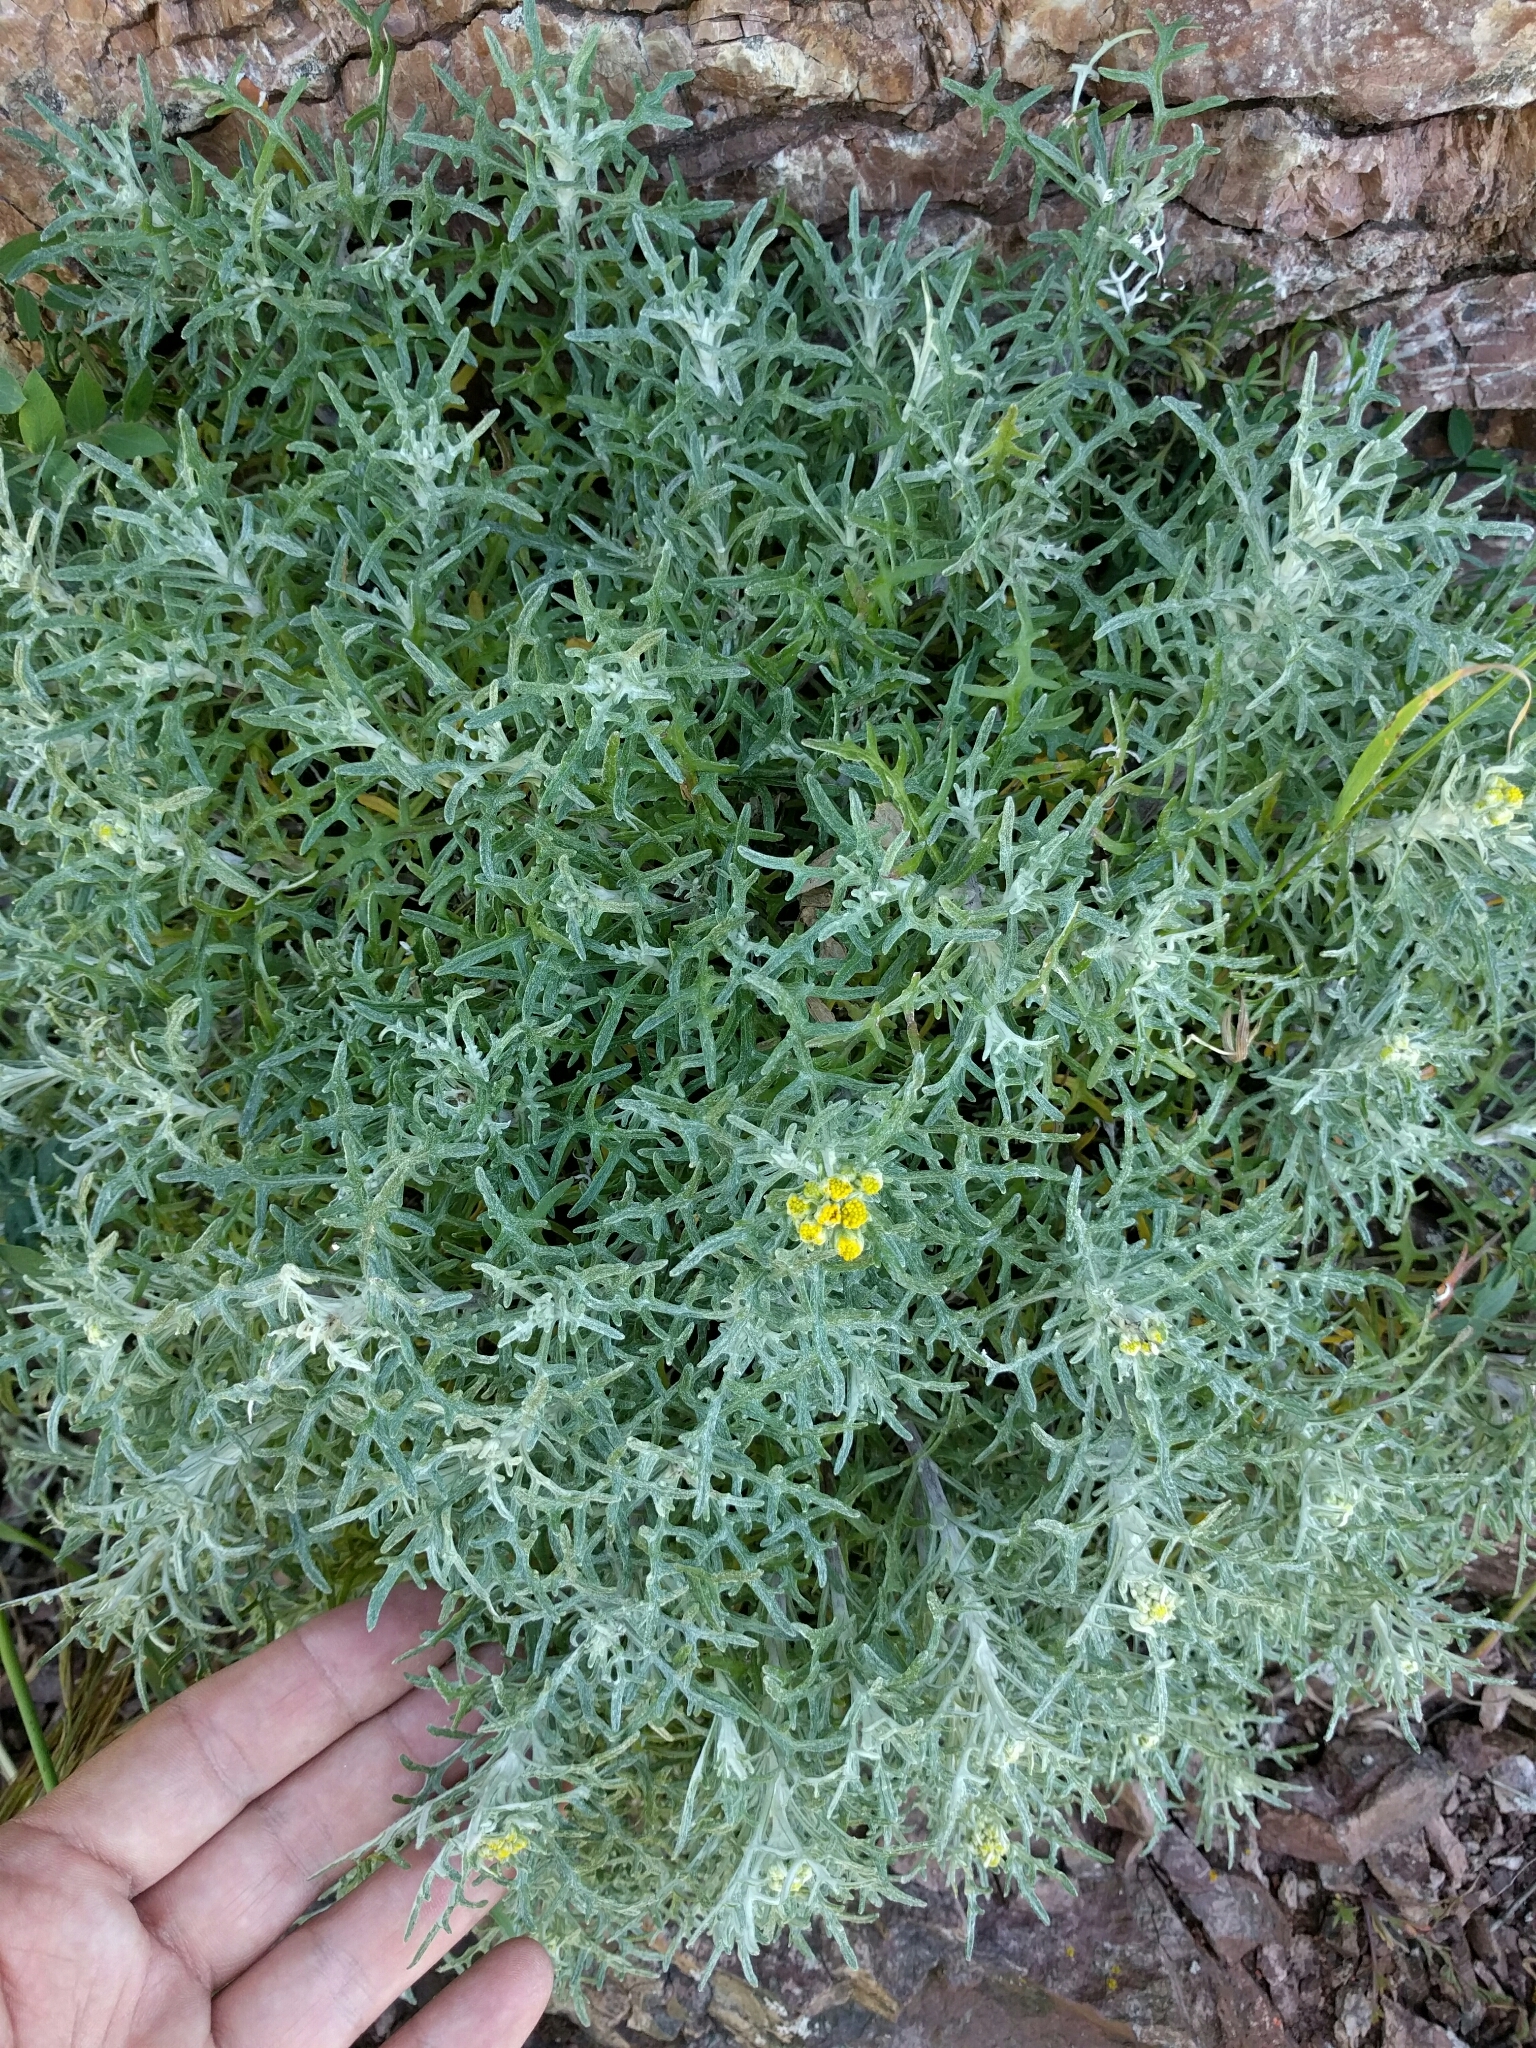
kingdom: Plantae
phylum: Tracheophyta
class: Magnoliopsida
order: Asterales
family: Asteraceae
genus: Eriophyllum
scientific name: Eriophyllum staechadifolium
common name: Lizardtail
